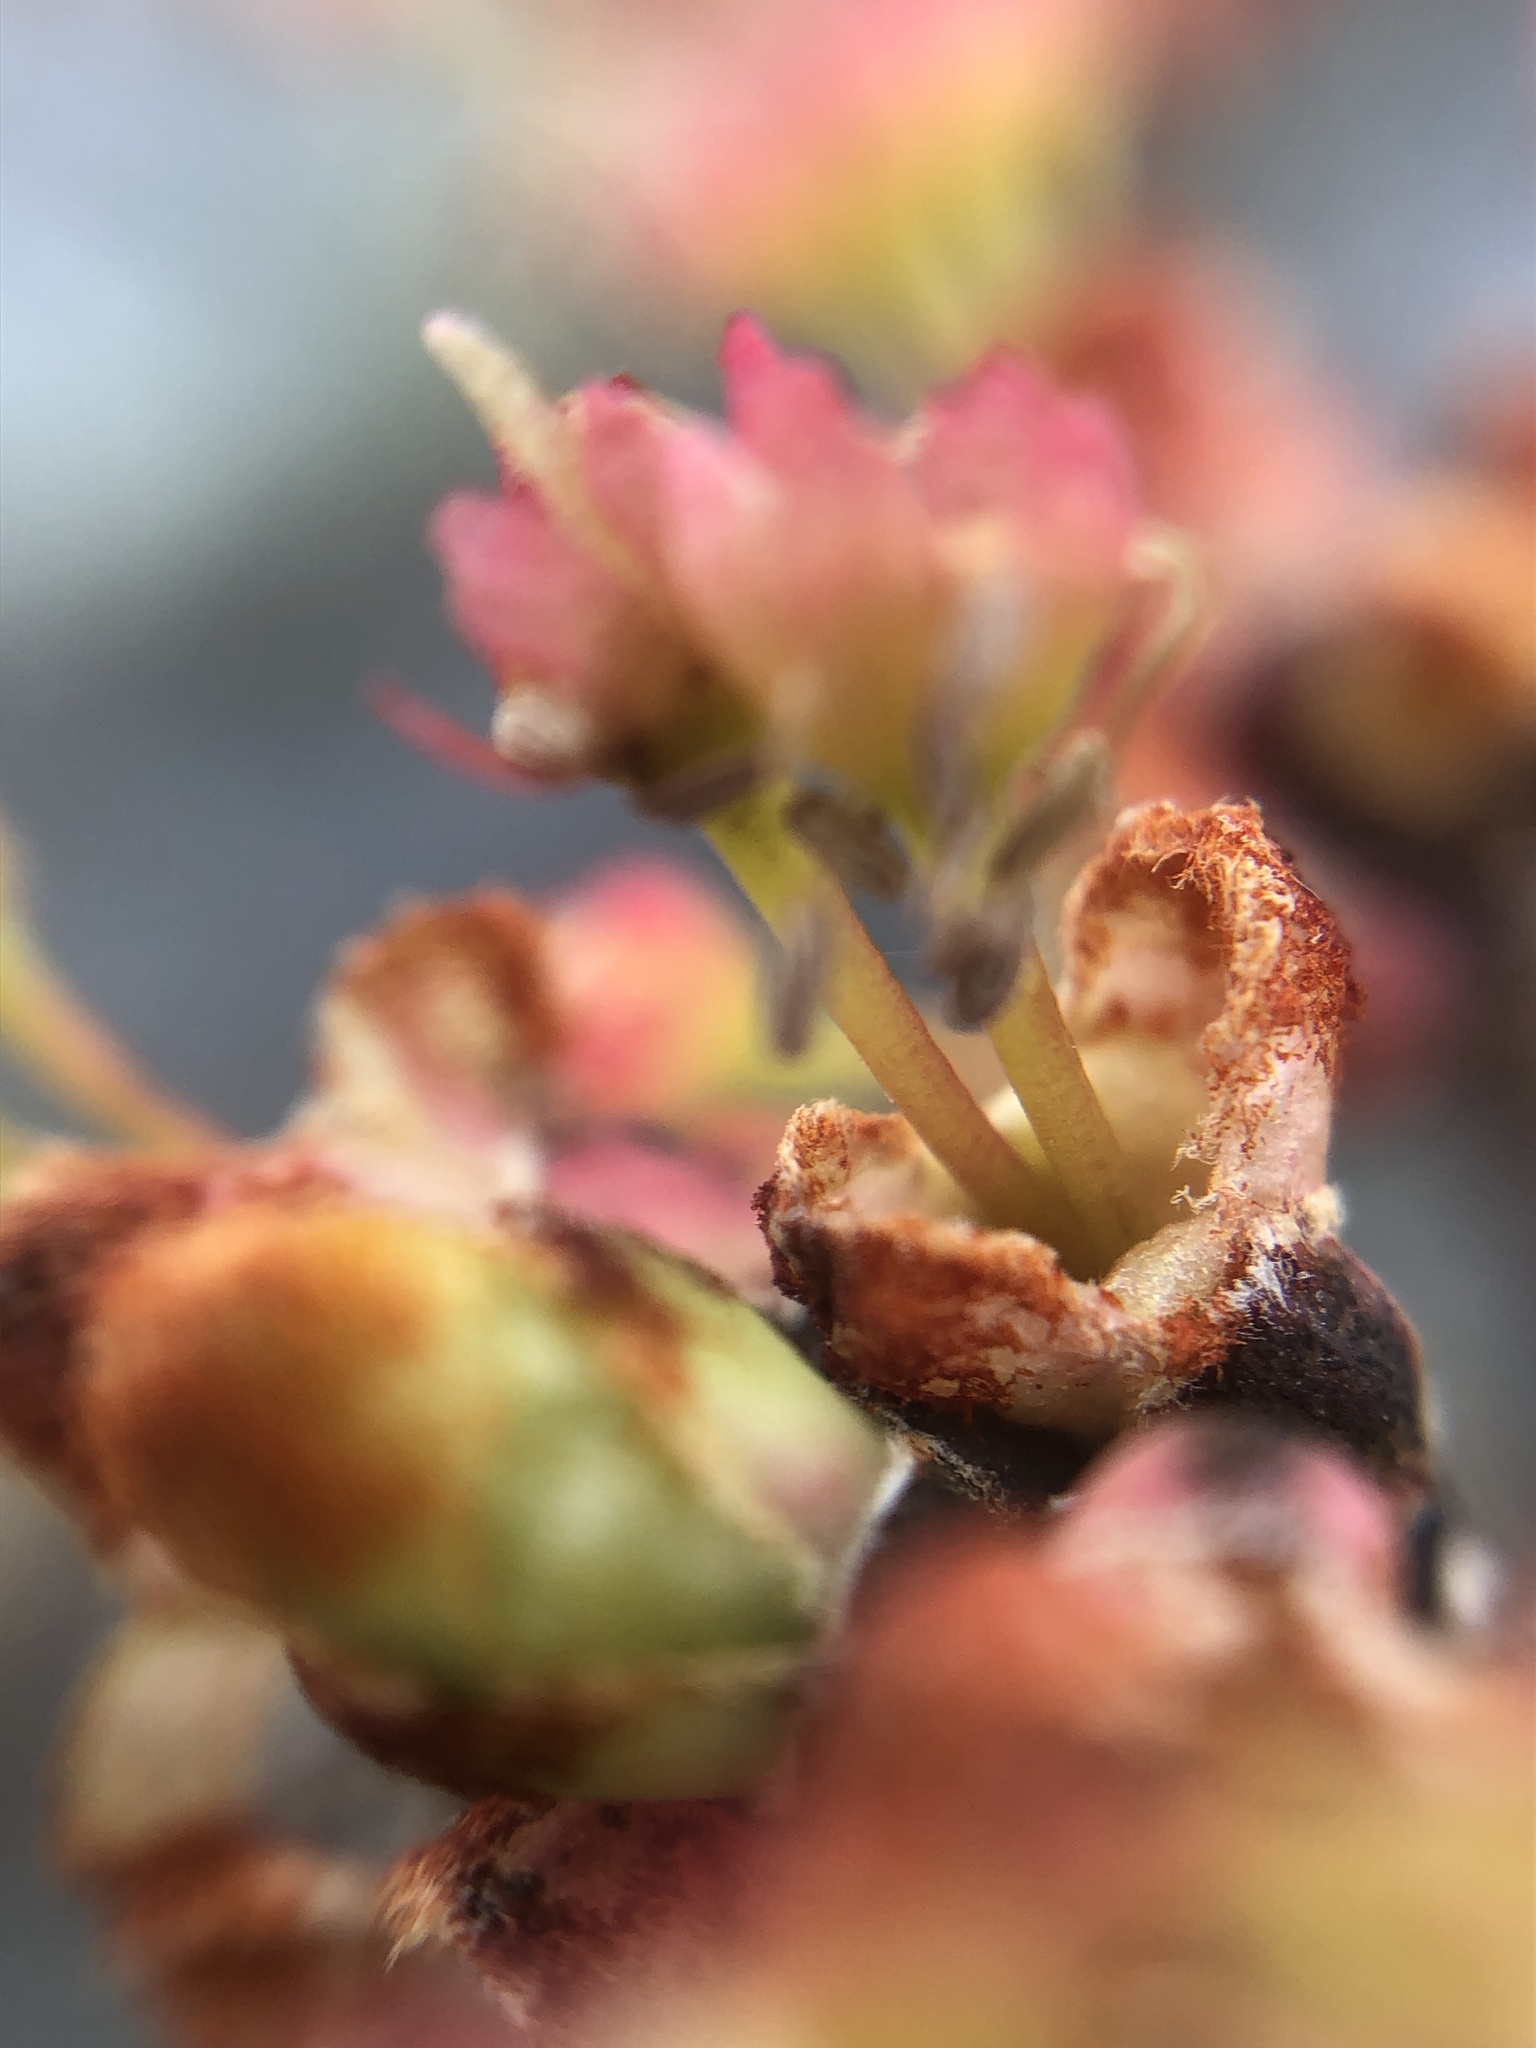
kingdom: Plantae
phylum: Tracheophyta
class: Magnoliopsida
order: Sapindales
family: Sapindaceae
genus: Acer
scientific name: Acer rubrum
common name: Red maple
